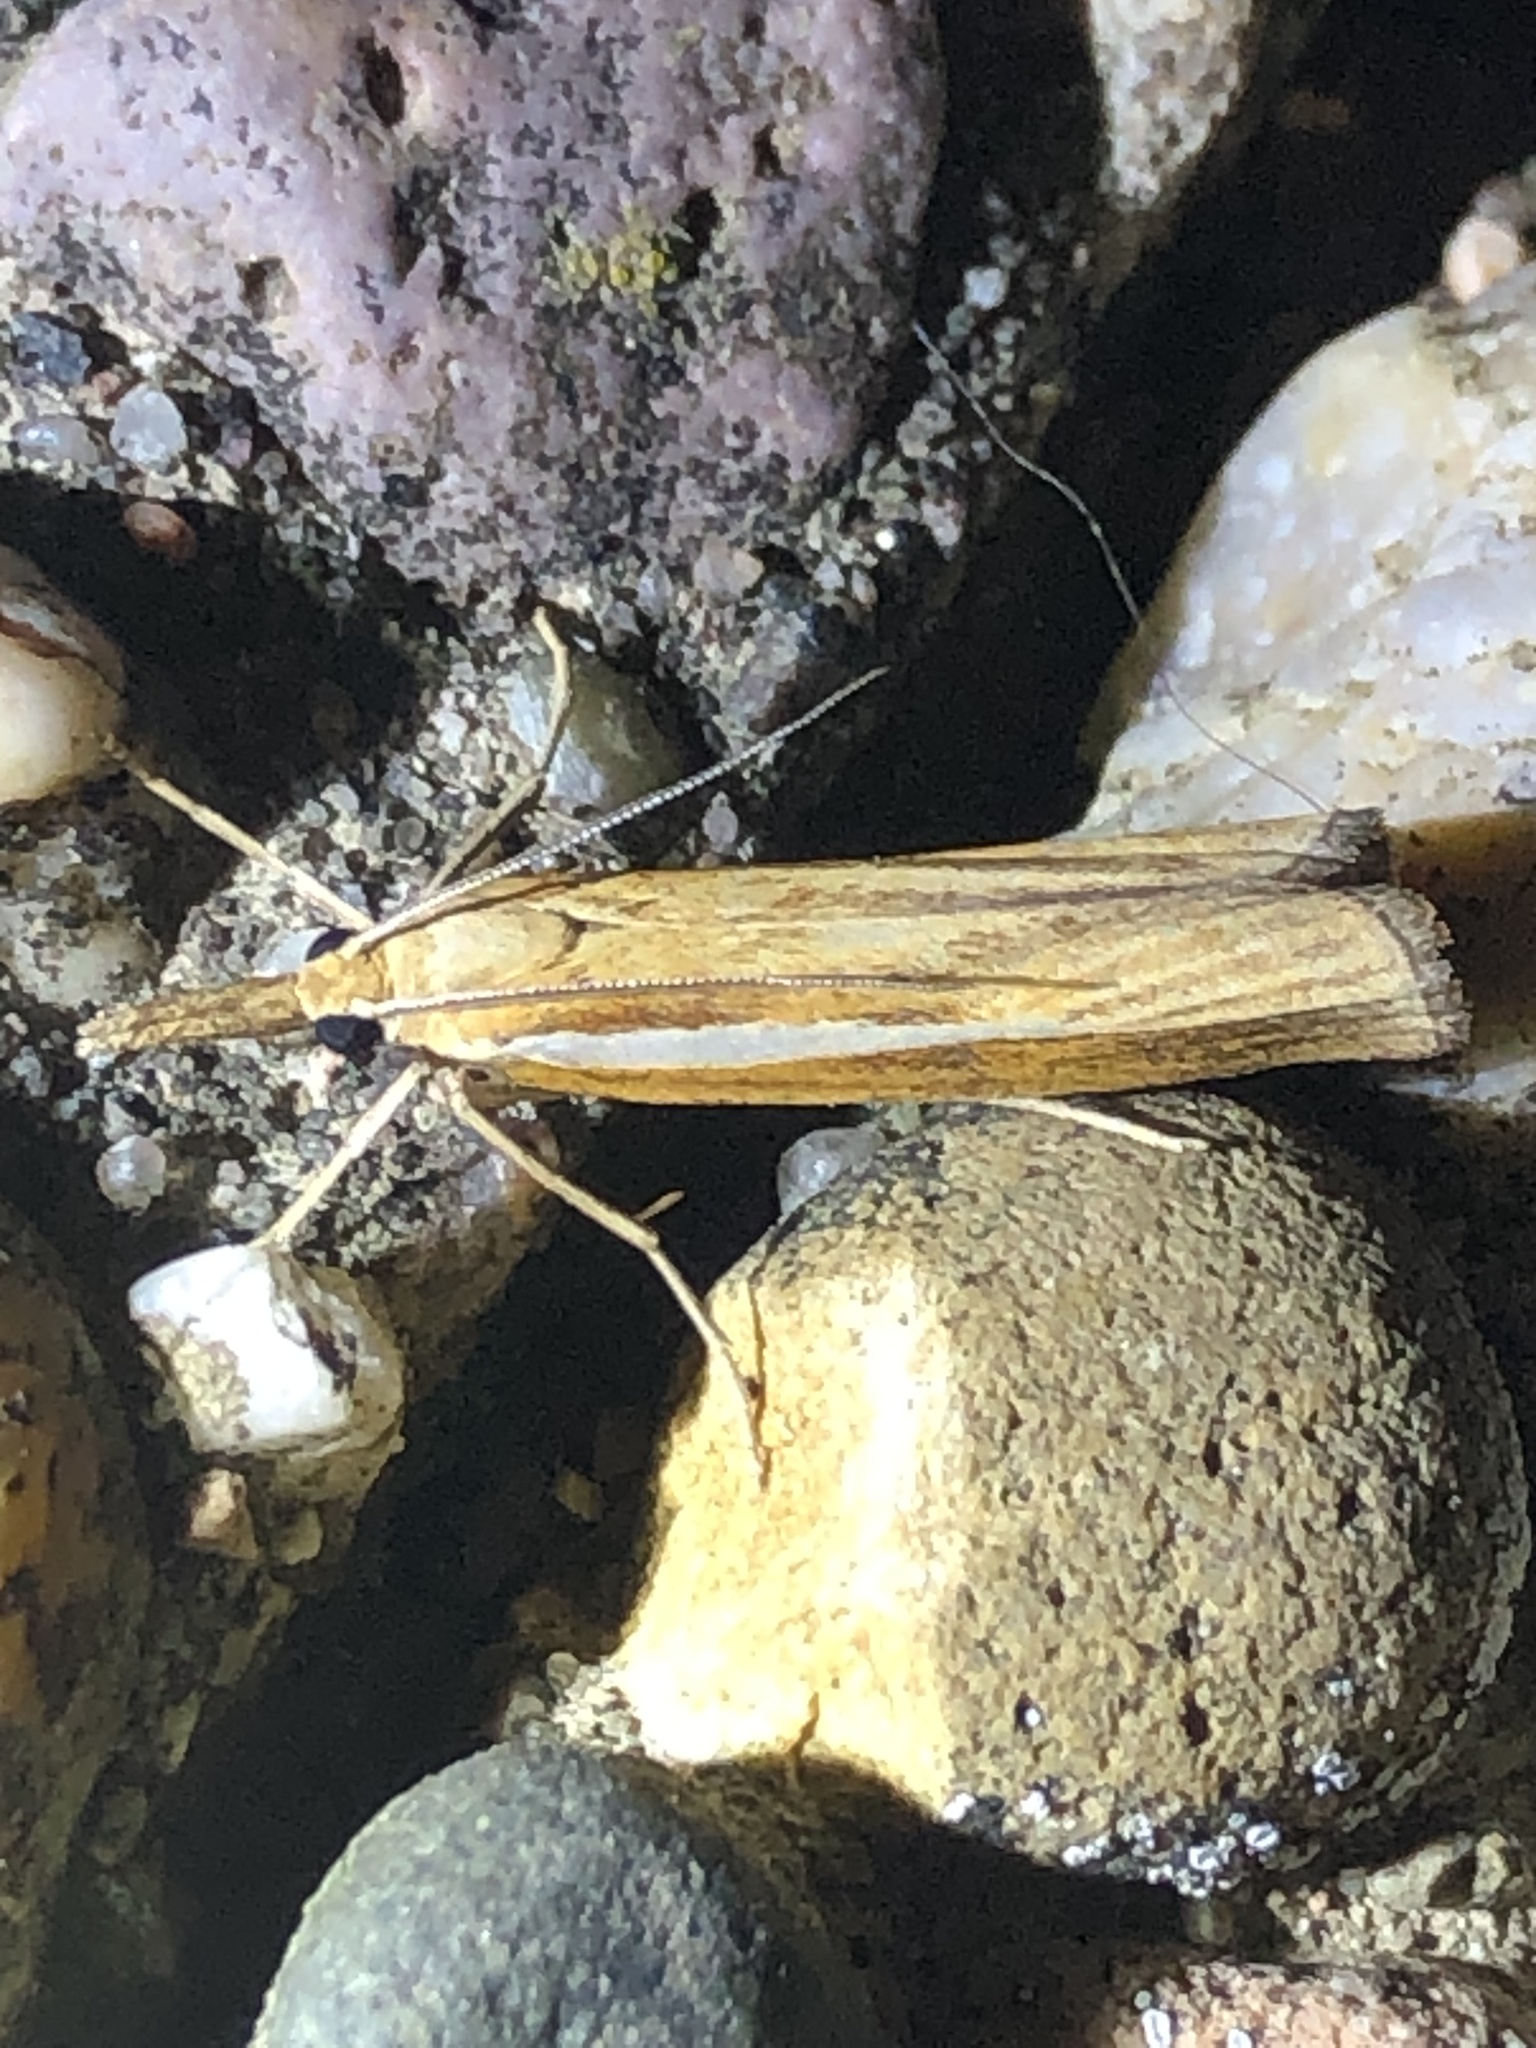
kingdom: Animalia
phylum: Arthropoda
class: Insecta
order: Lepidoptera
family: Crambidae
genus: Agriphila
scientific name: Agriphila tristellus
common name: Common grass-veneer
